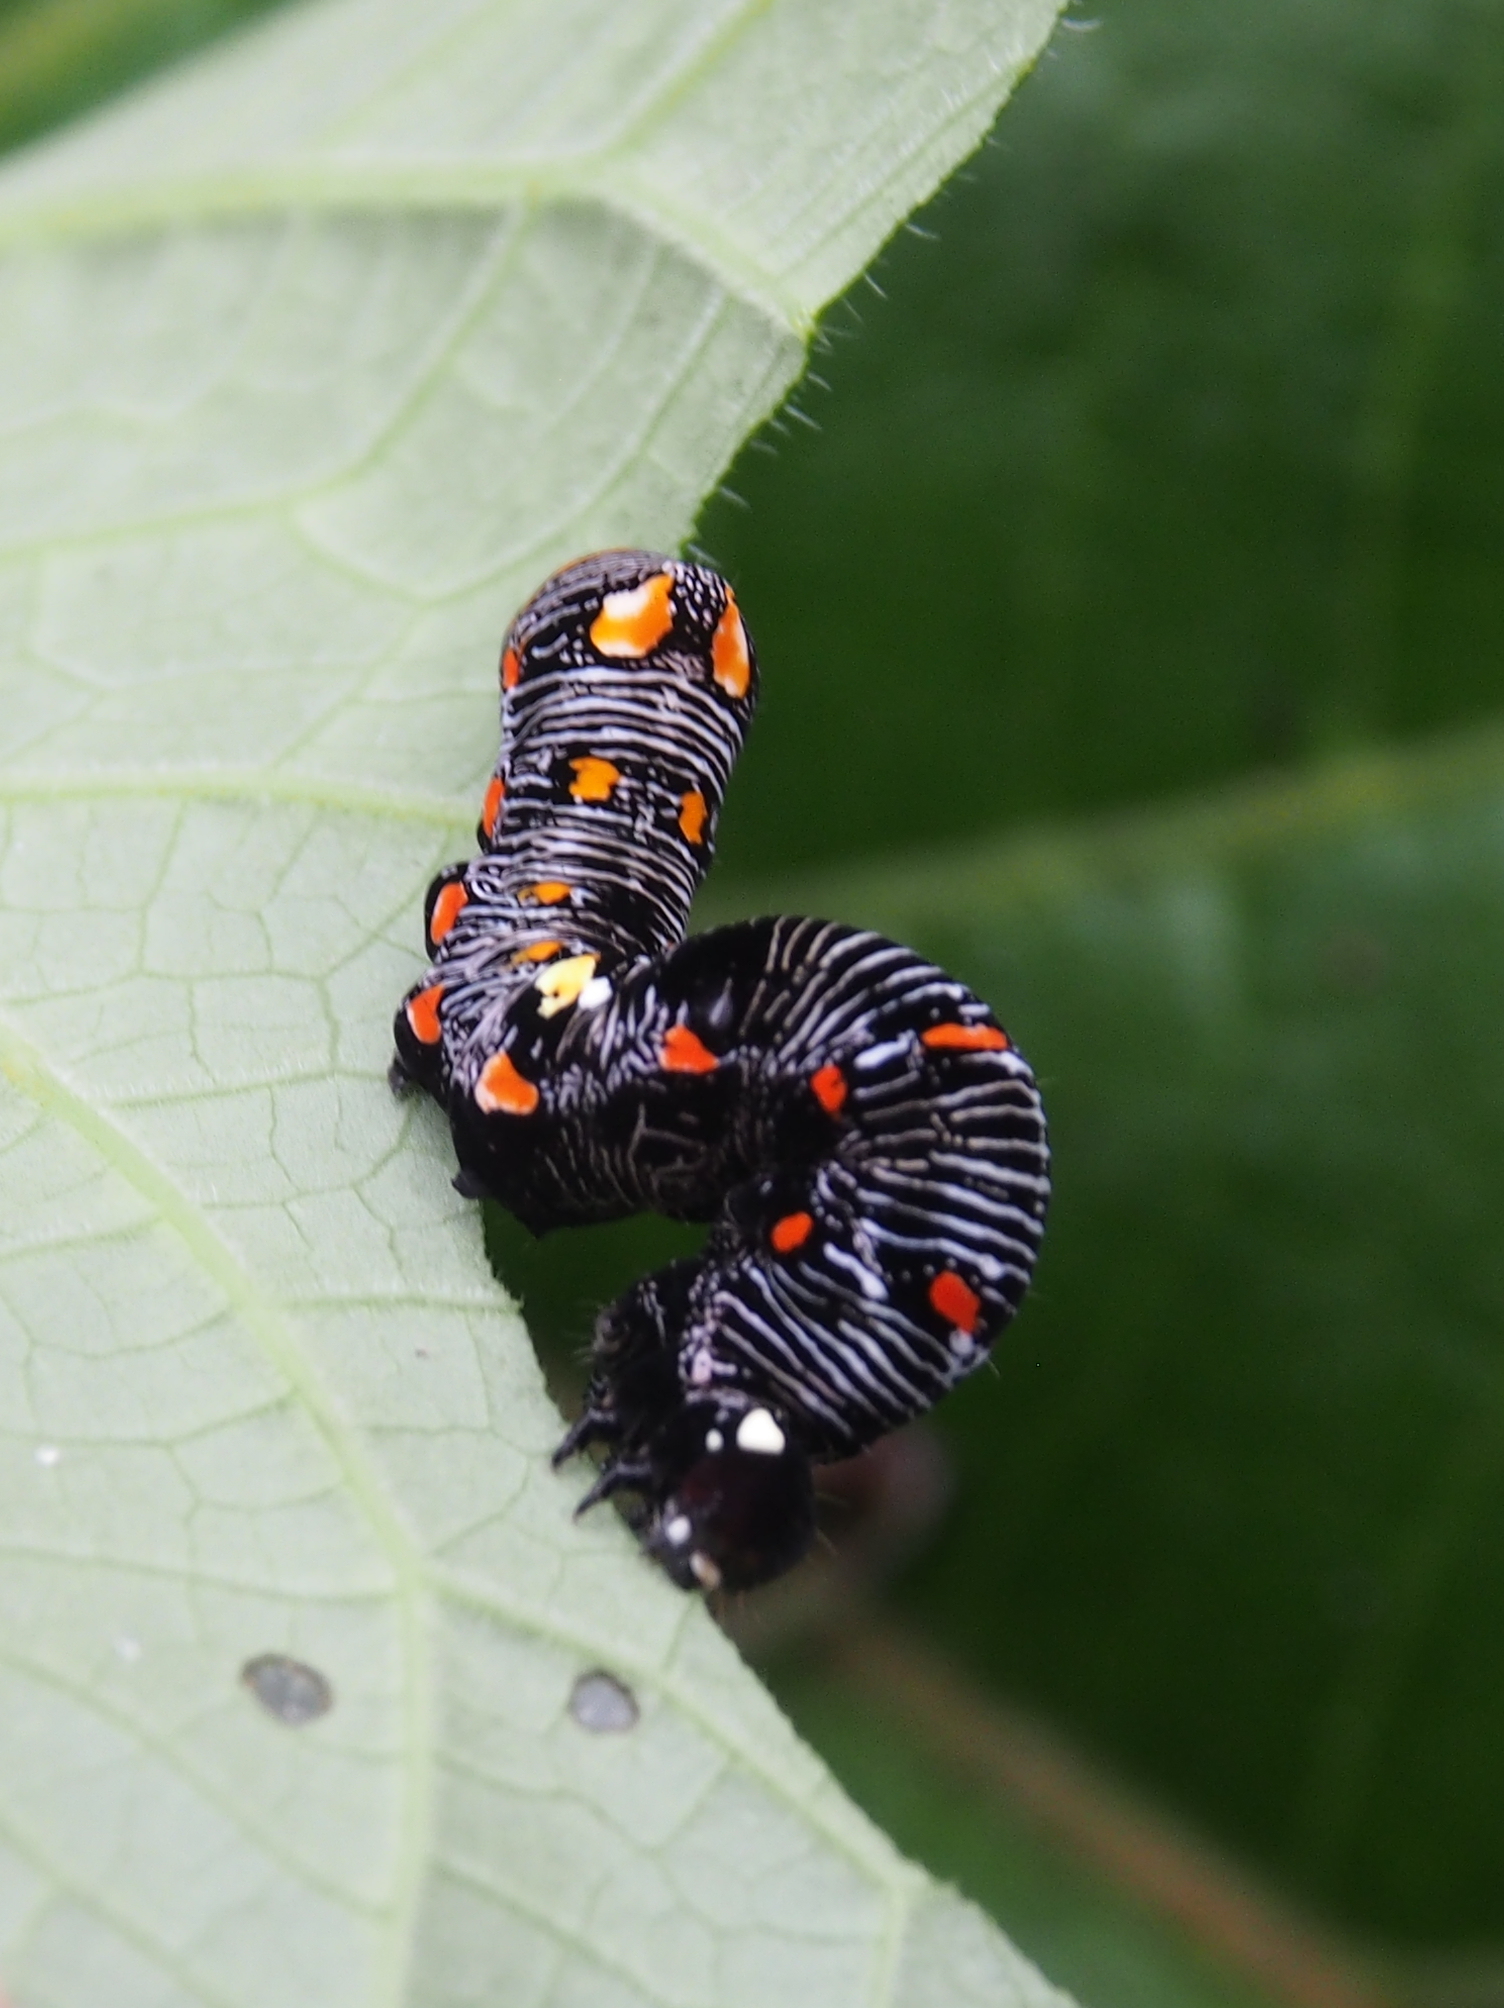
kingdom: Animalia
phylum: Arthropoda
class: Insecta
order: Lepidoptera
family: Erebidae
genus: Gonodonta
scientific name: Gonodonta uxor
